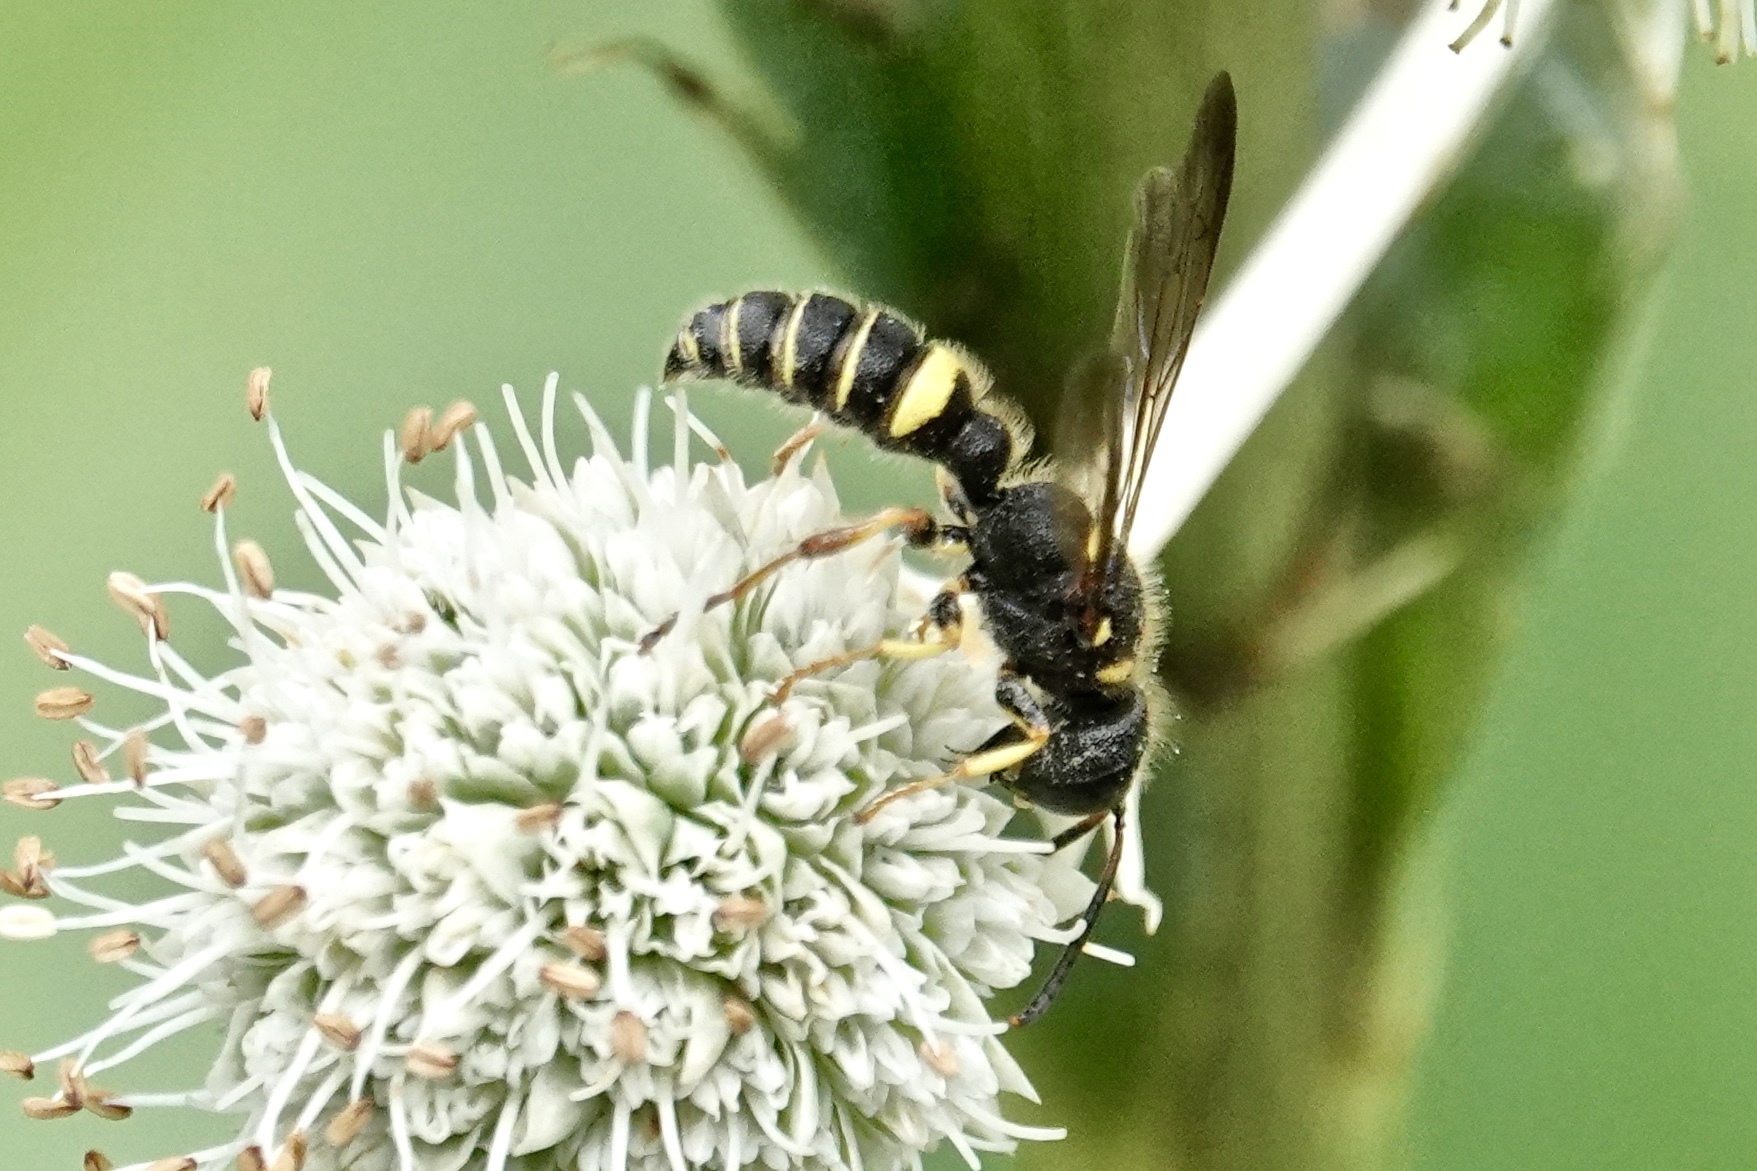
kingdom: Animalia
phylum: Arthropoda
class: Insecta
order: Hymenoptera
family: Crabronidae
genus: Philanthus
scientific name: Philanthus gibbosus
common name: Humped beewolf
